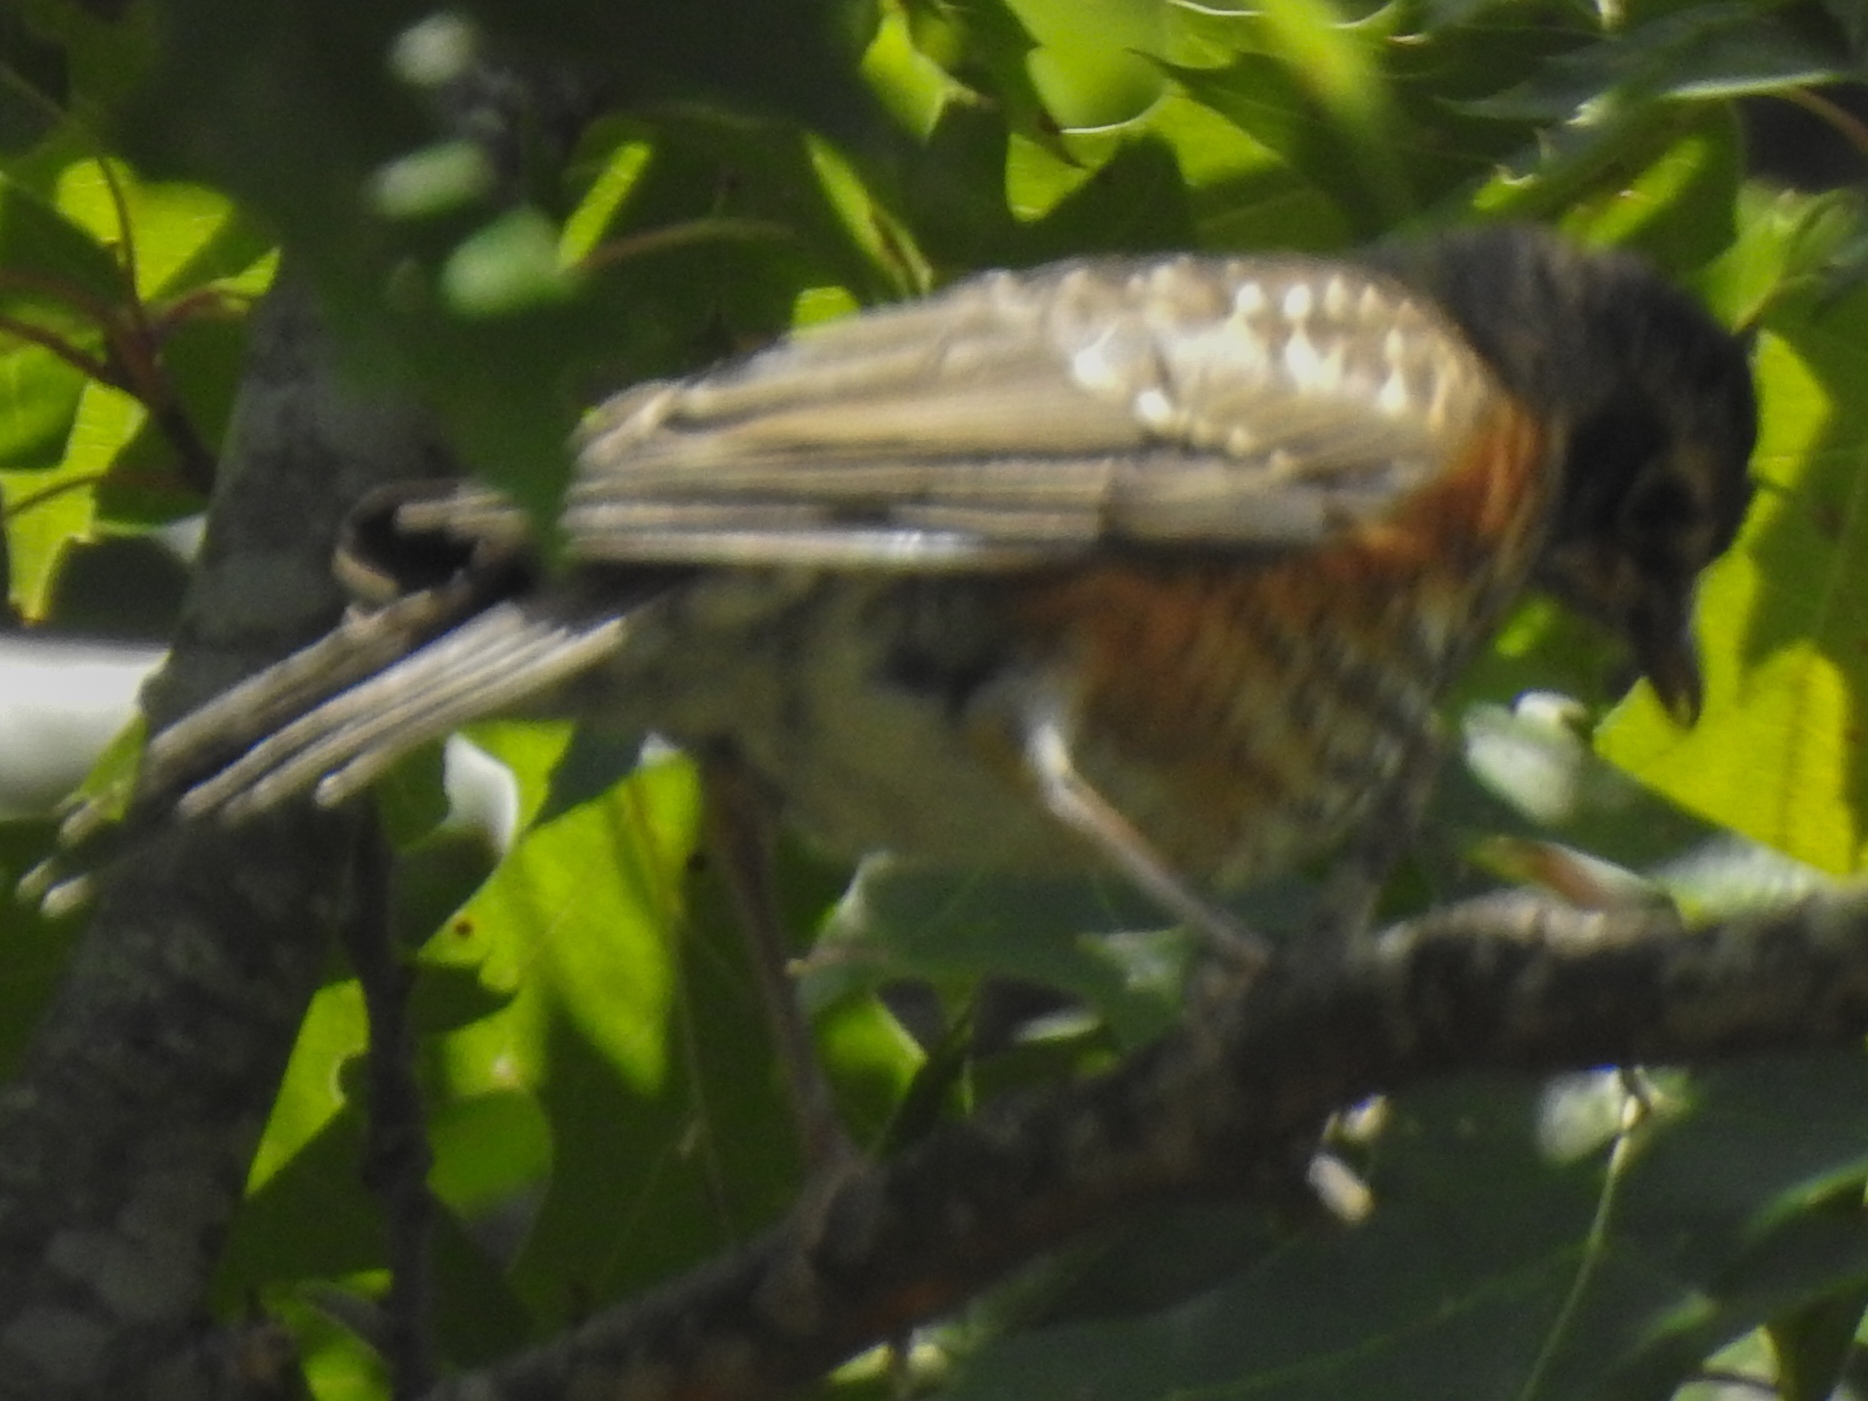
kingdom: Animalia
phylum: Chordata
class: Aves
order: Passeriformes
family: Turdidae
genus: Turdus
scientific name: Turdus migratorius
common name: American robin
